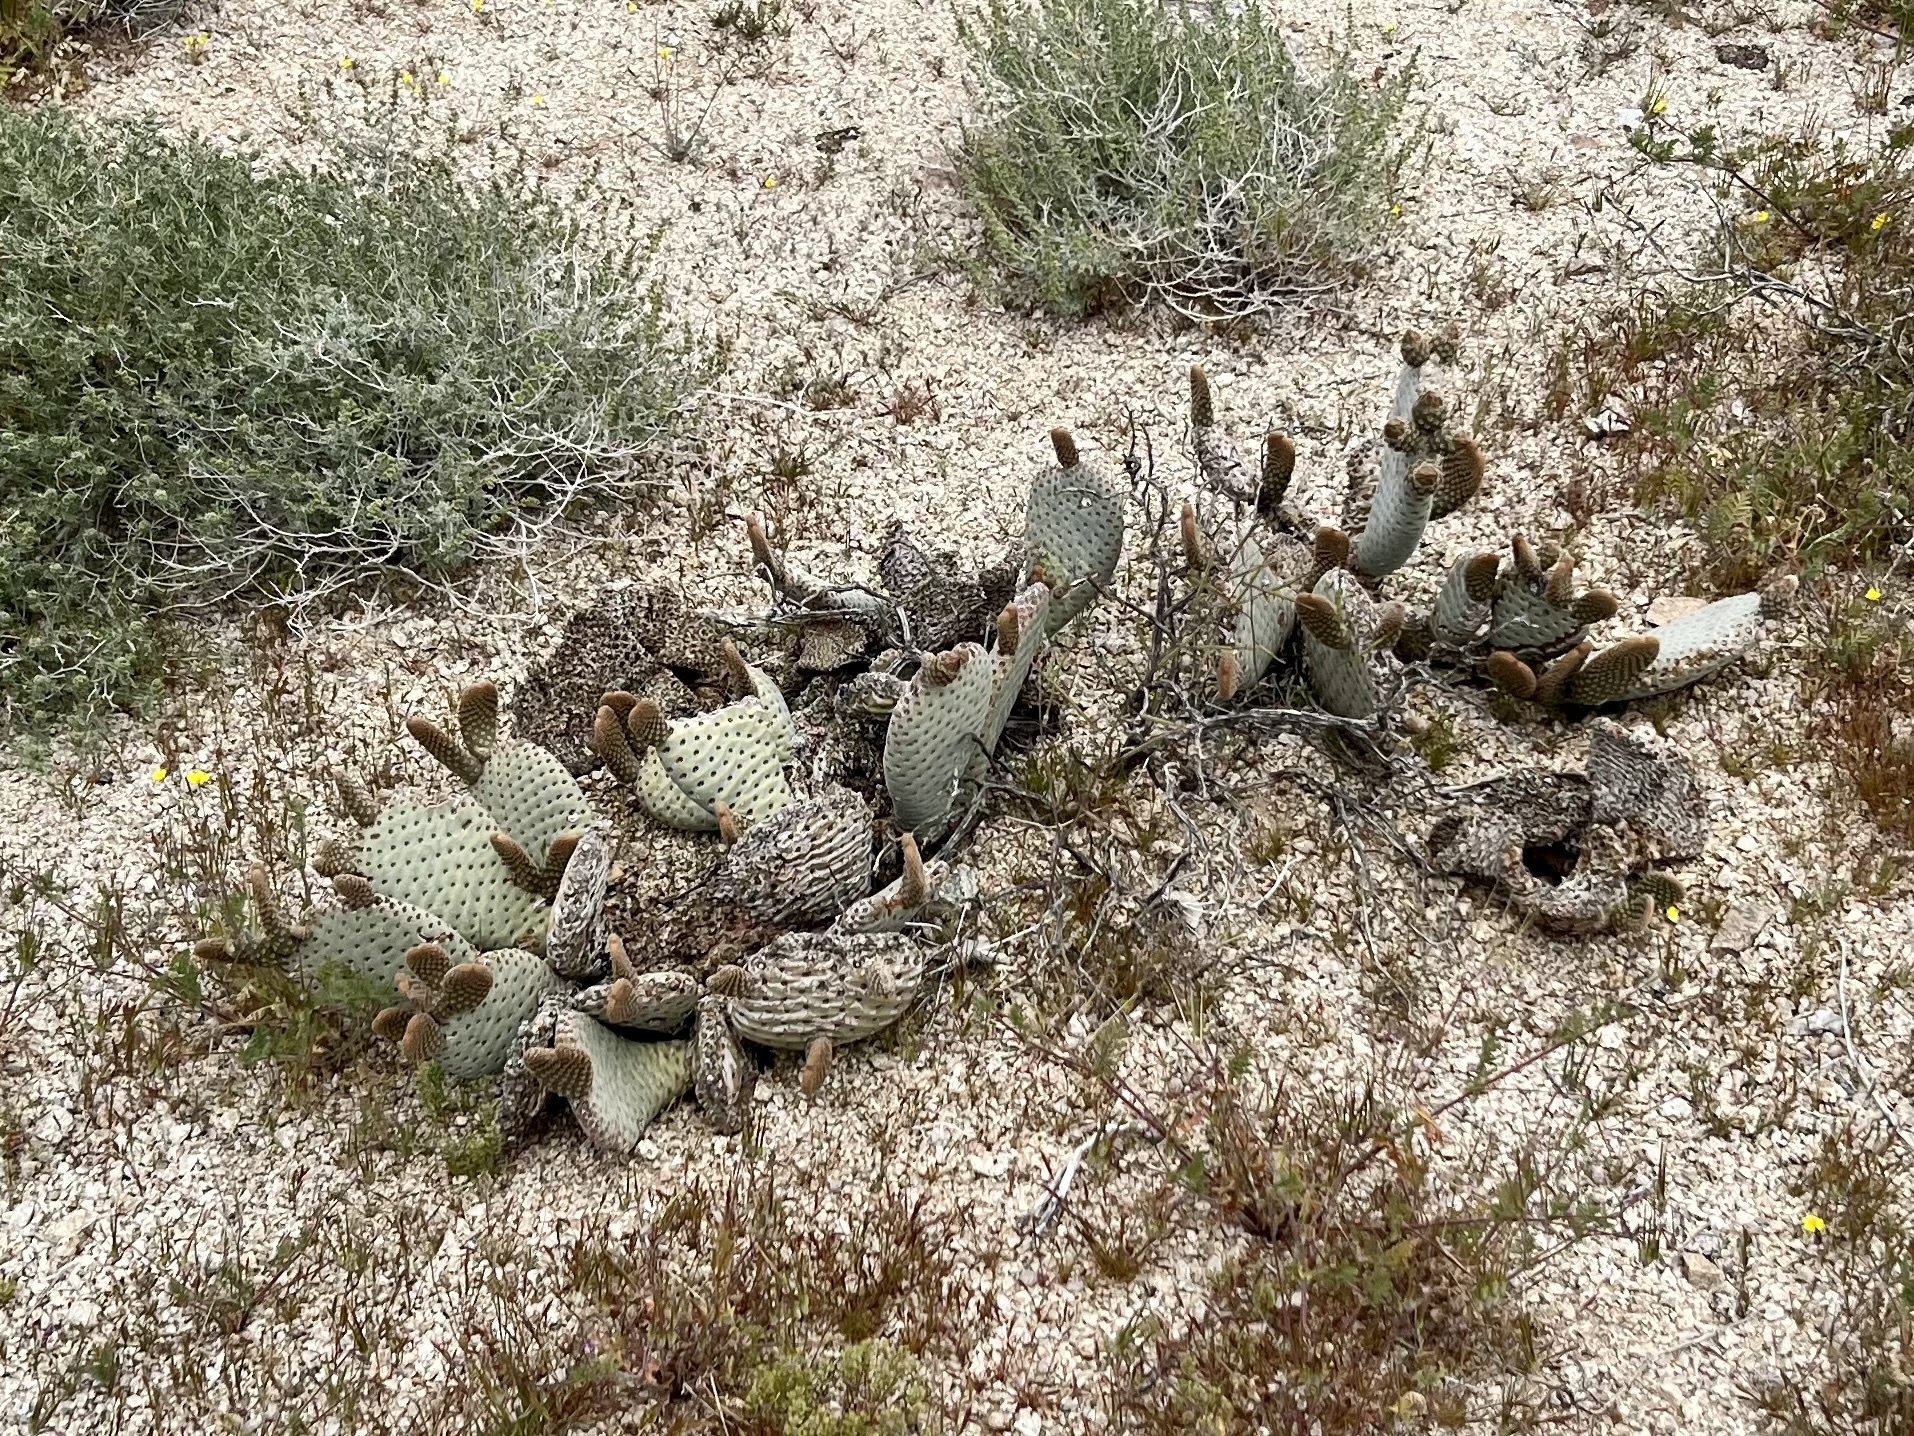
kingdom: Plantae
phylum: Tracheophyta
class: Magnoliopsida
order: Caryophyllales
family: Cactaceae
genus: Opuntia
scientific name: Opuntia basilaris
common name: Beavertail prickly-pear
